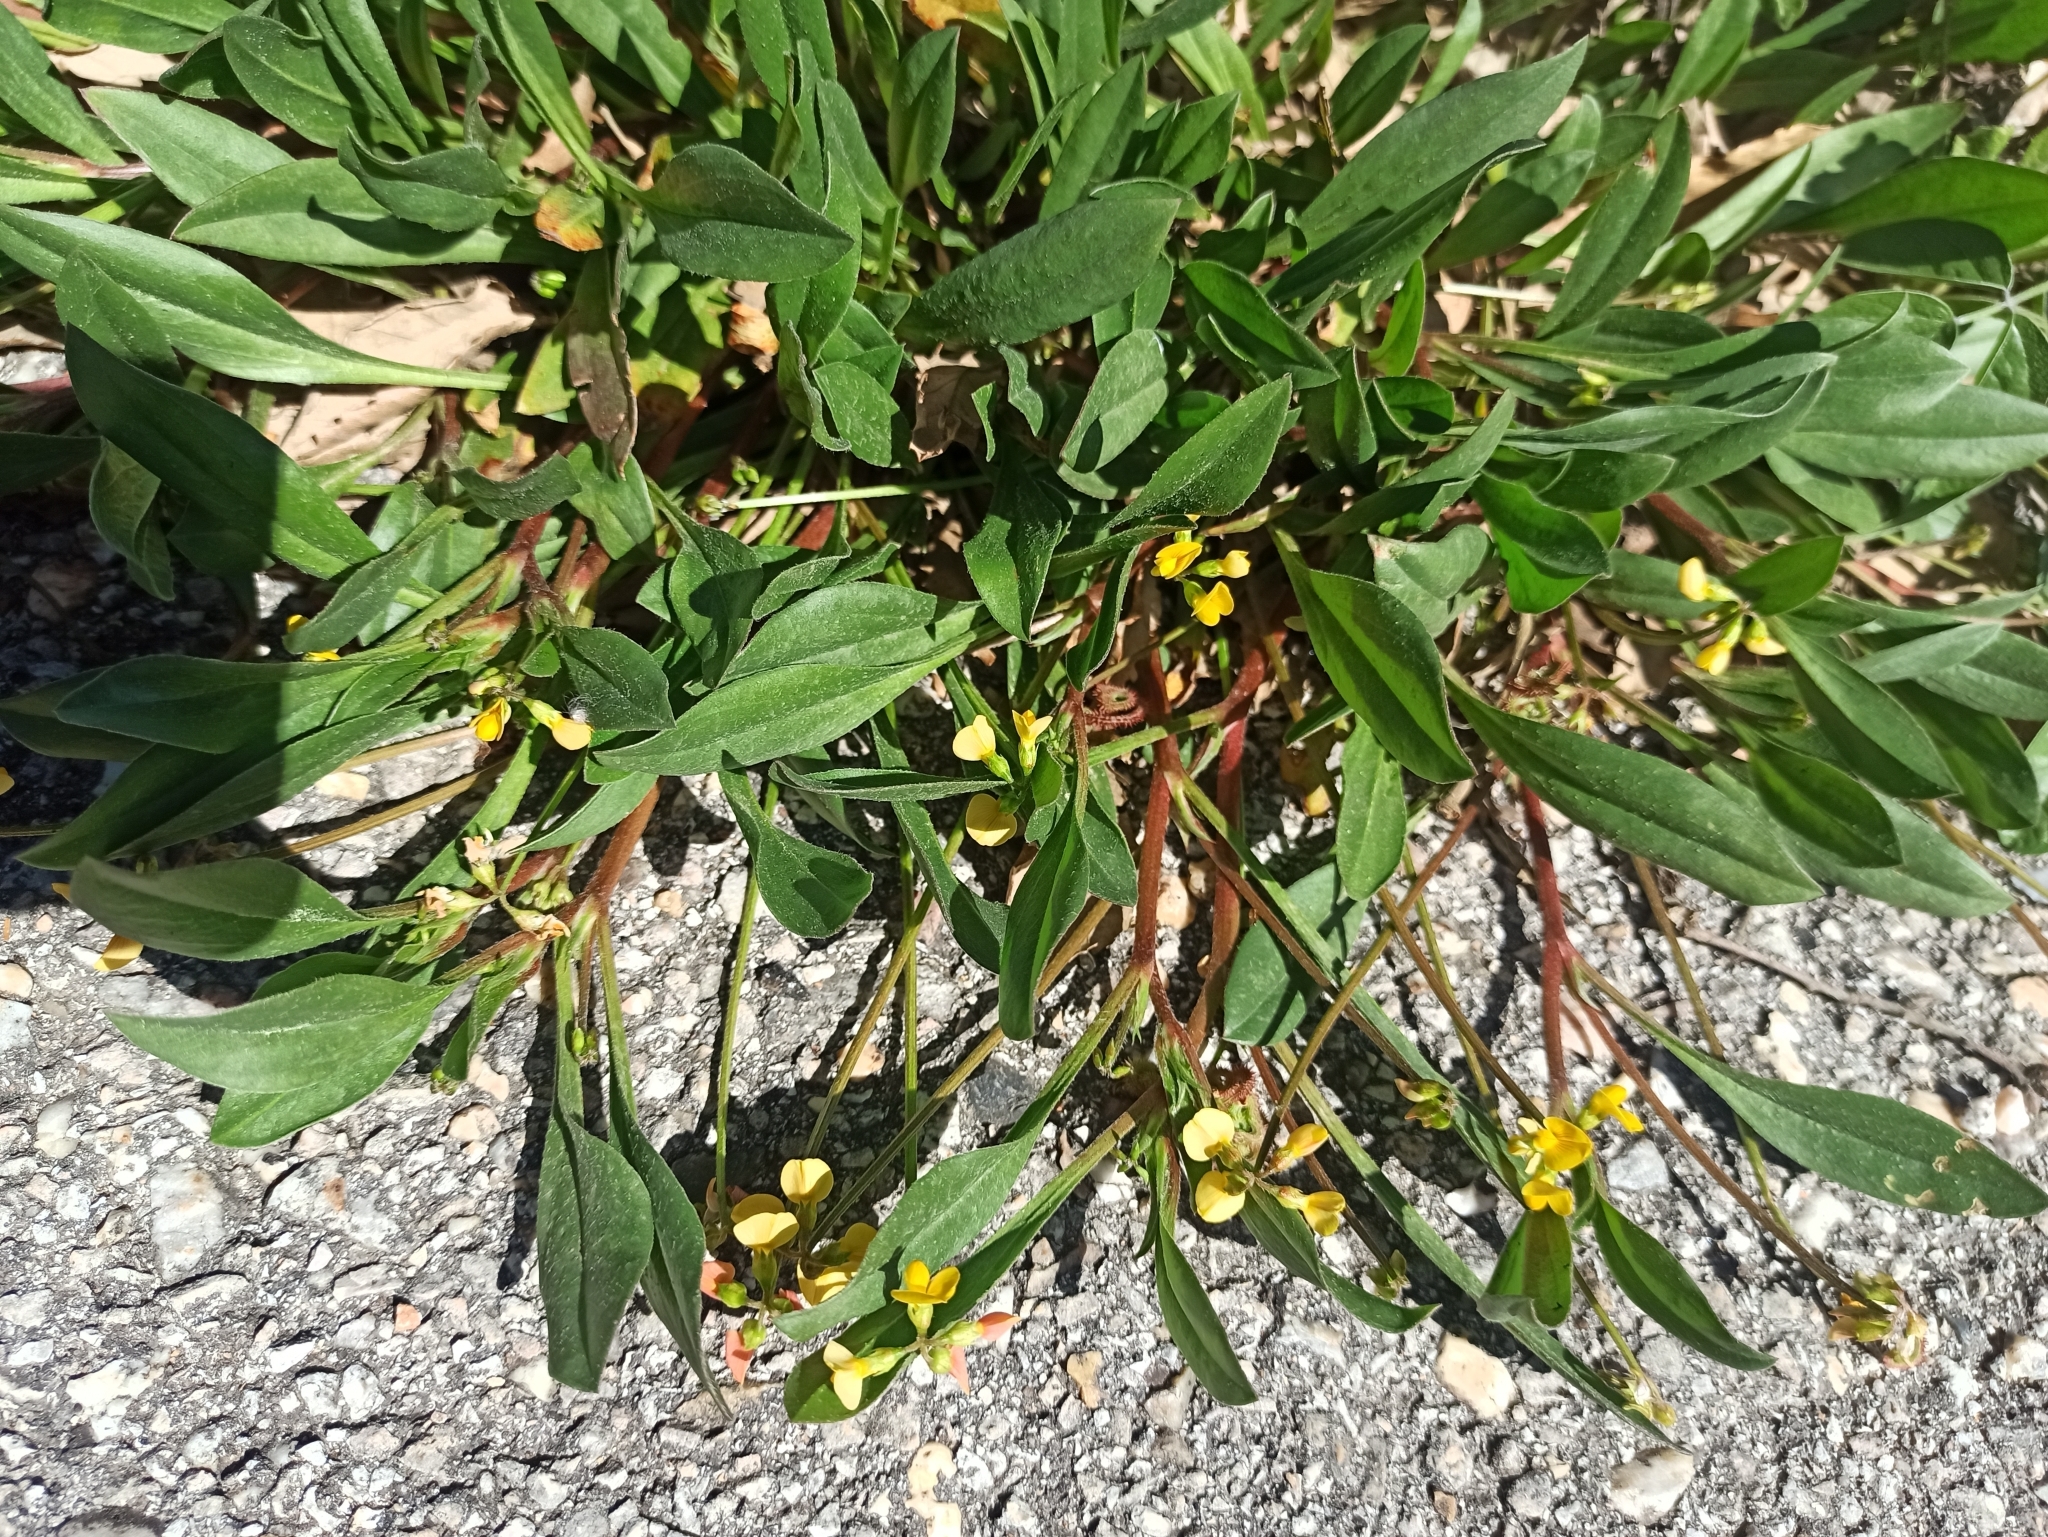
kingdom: Plantae
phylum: Tracheophyta
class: Magnoliopsida
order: Fabales
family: Fabaceae
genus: Scorpiurus
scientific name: Scorpiurus muricatus
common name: Caterpillar-plant
